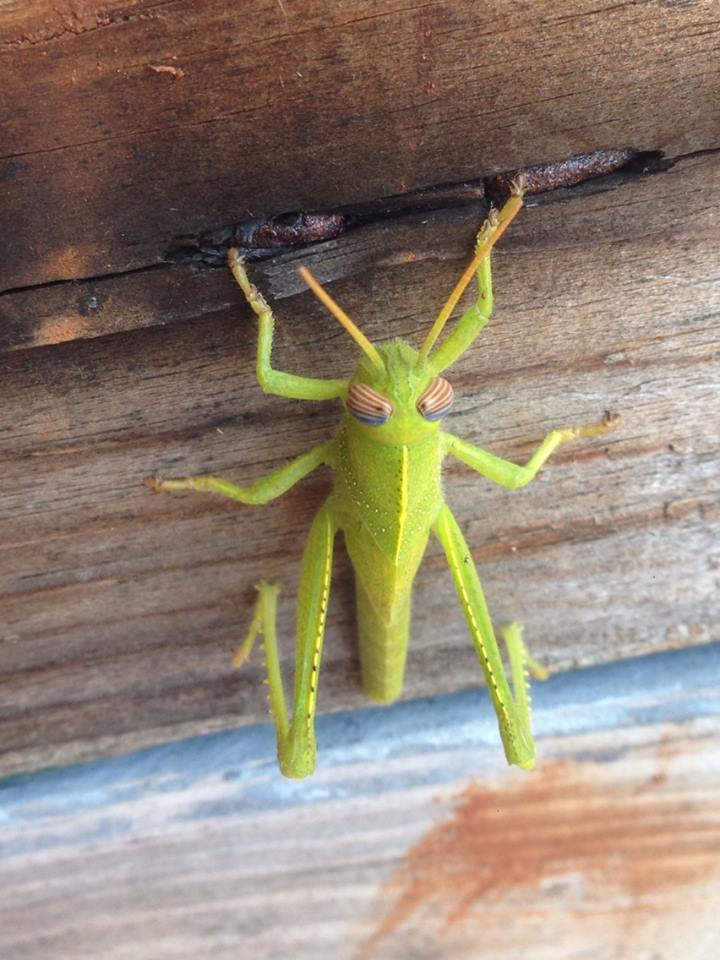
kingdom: Animalia
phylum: Arthropoda
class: Insecta
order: Orthoptera
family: Acrididae
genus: Anacridium
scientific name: Anacridium aegyptium
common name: Egyptian grasshopper
